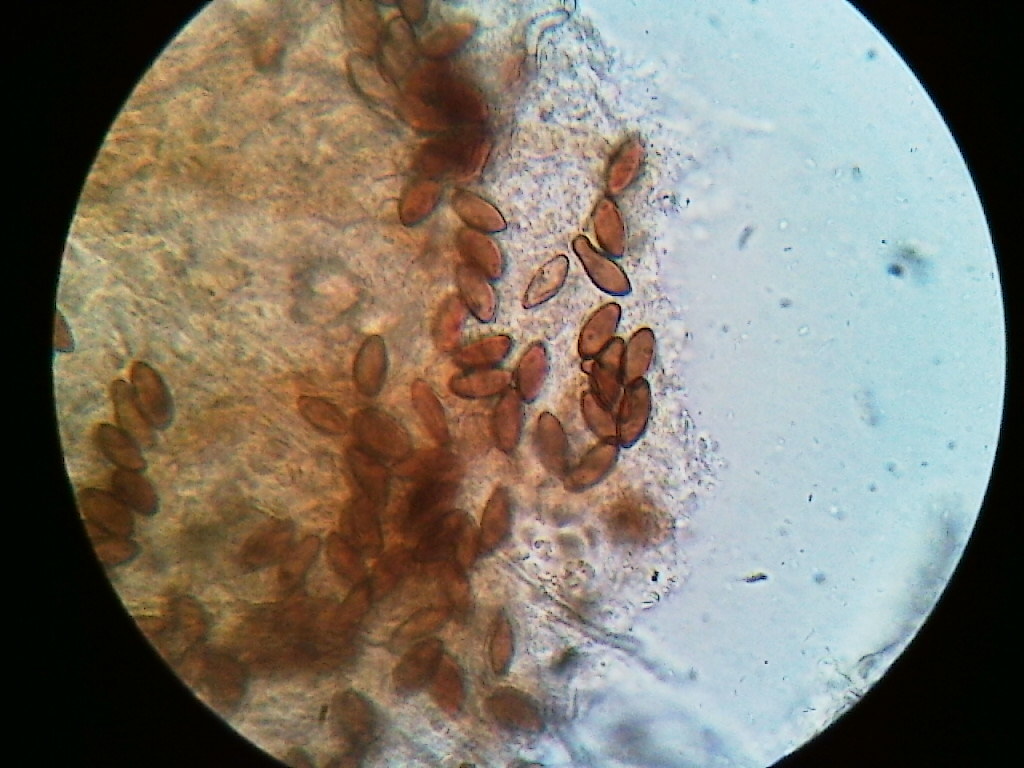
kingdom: Fungi
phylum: Ascomycota
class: Sordariomycetes
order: Xylariales
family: Xylariaceae
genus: Rosellinia
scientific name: Rosellinia subiculata
